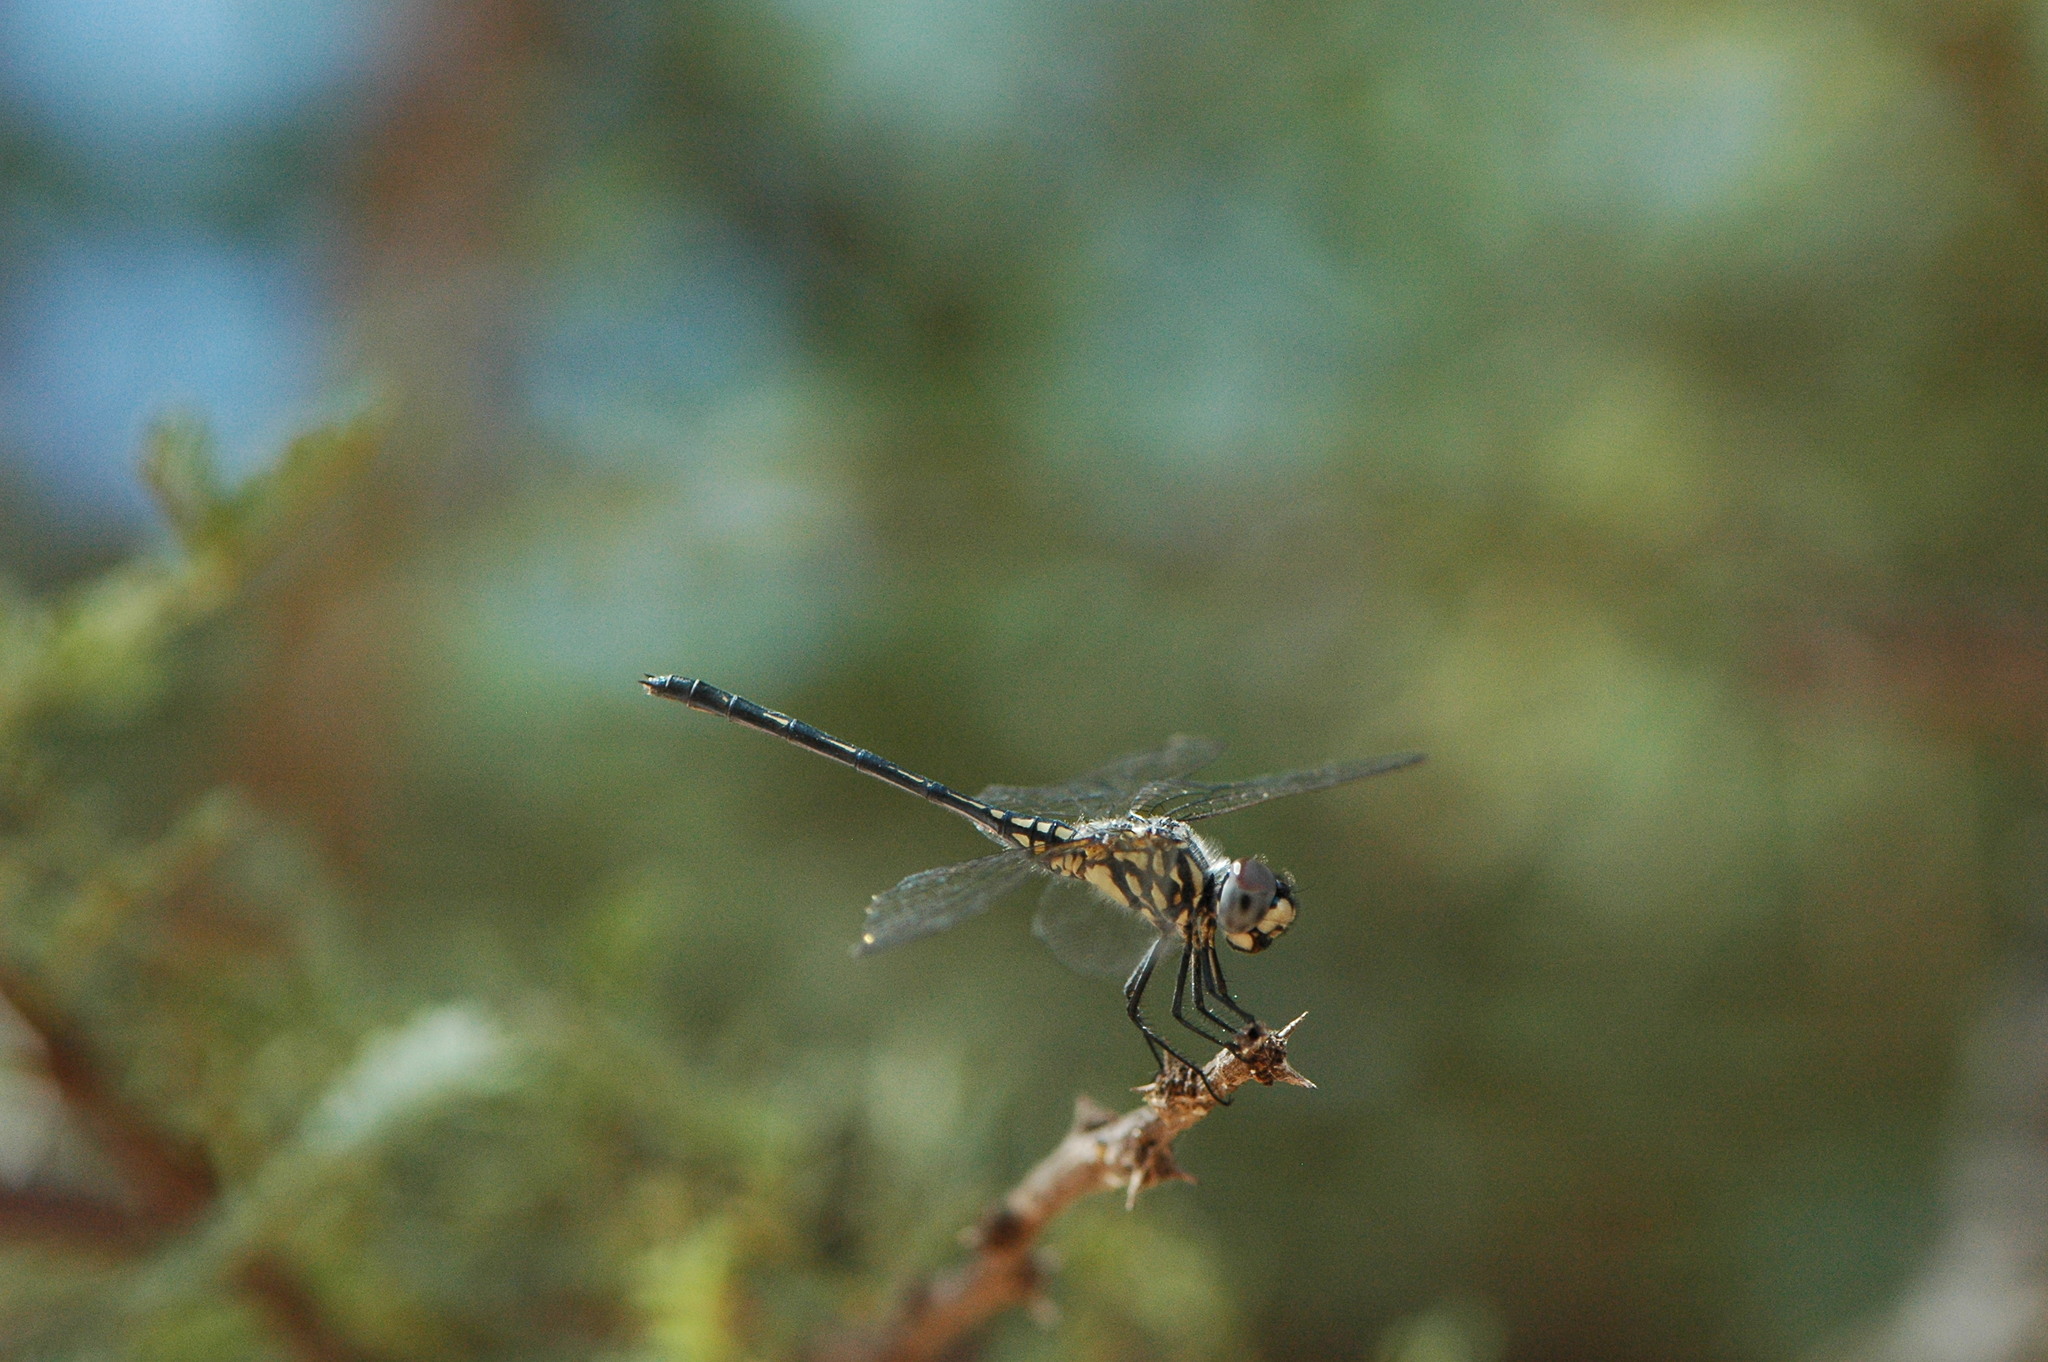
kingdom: Animalia
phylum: Arthropoda
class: Insecta
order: Odonata
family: Libellulidae
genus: Trithemis
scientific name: Trithemis hecate
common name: Silhouette dropwing
